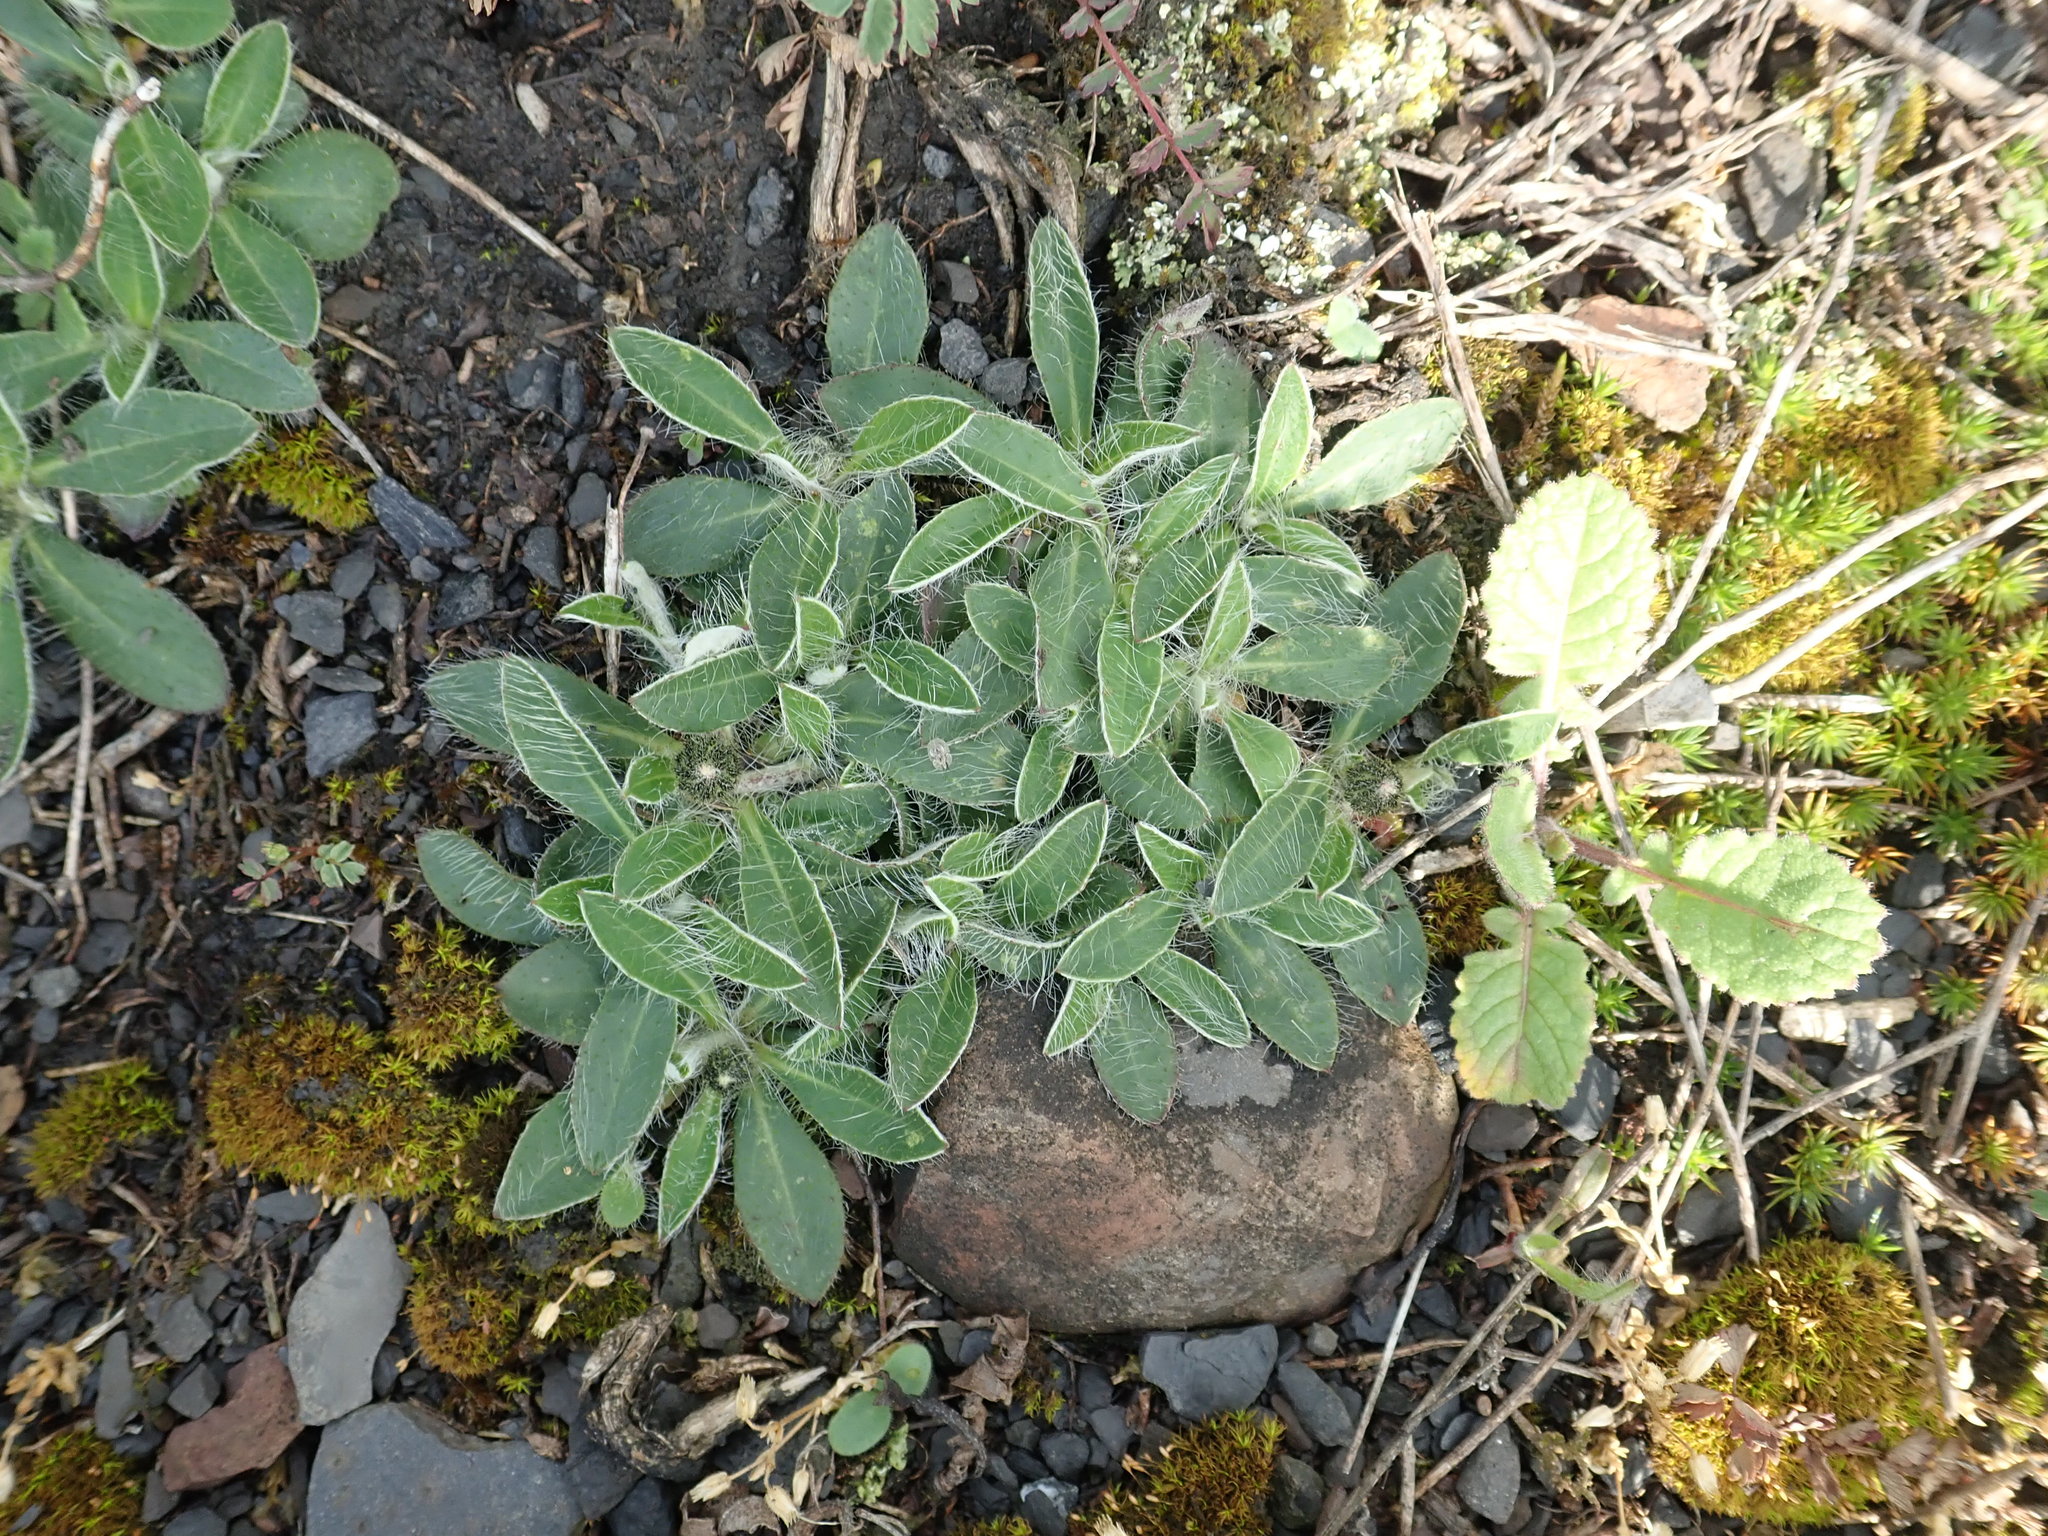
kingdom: Plantae
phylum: Tracheophyta
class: Magnoliopsida
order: Asterales
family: Asteraceae
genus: Pilosella
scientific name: Pilosella officinarum
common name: Mouse-ear hawkweed
